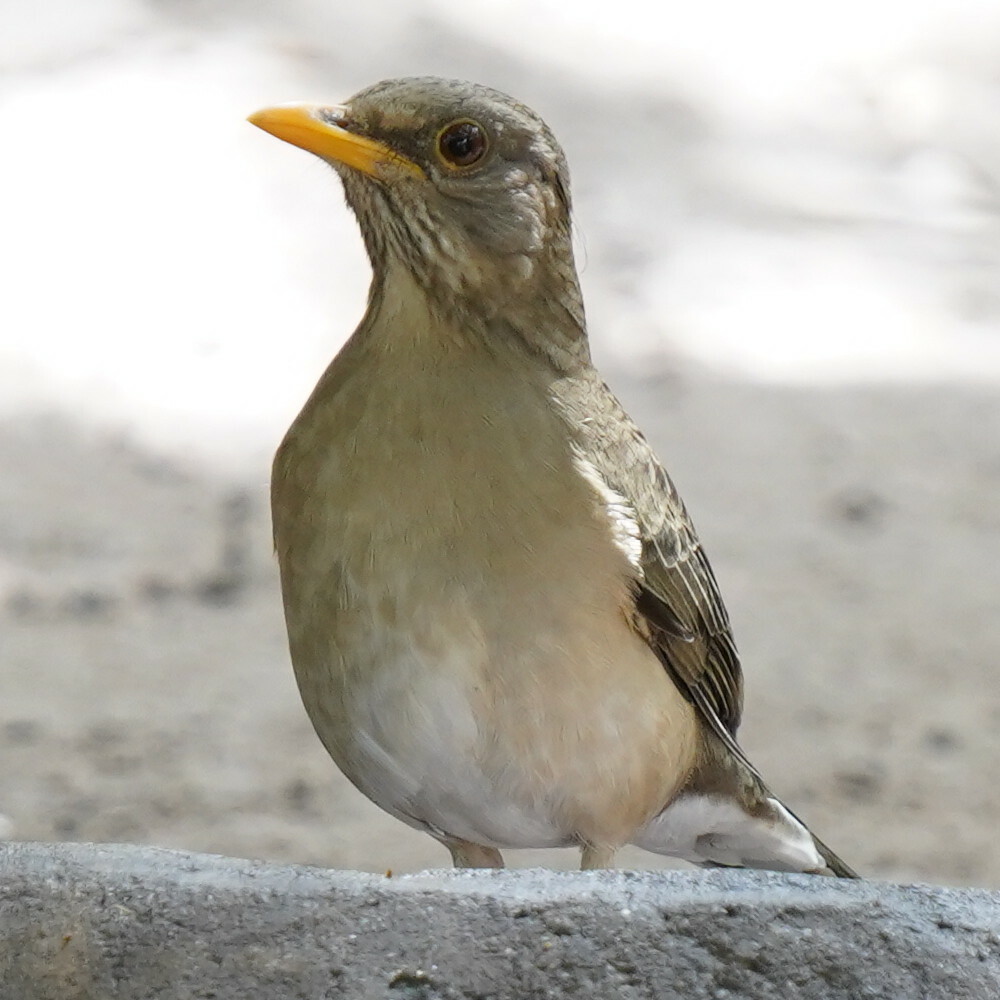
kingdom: Animalia
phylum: Chordata
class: Aves
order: Passeriformes
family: Turdidae
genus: Turdus
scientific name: Turdus pelios
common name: African thrush
